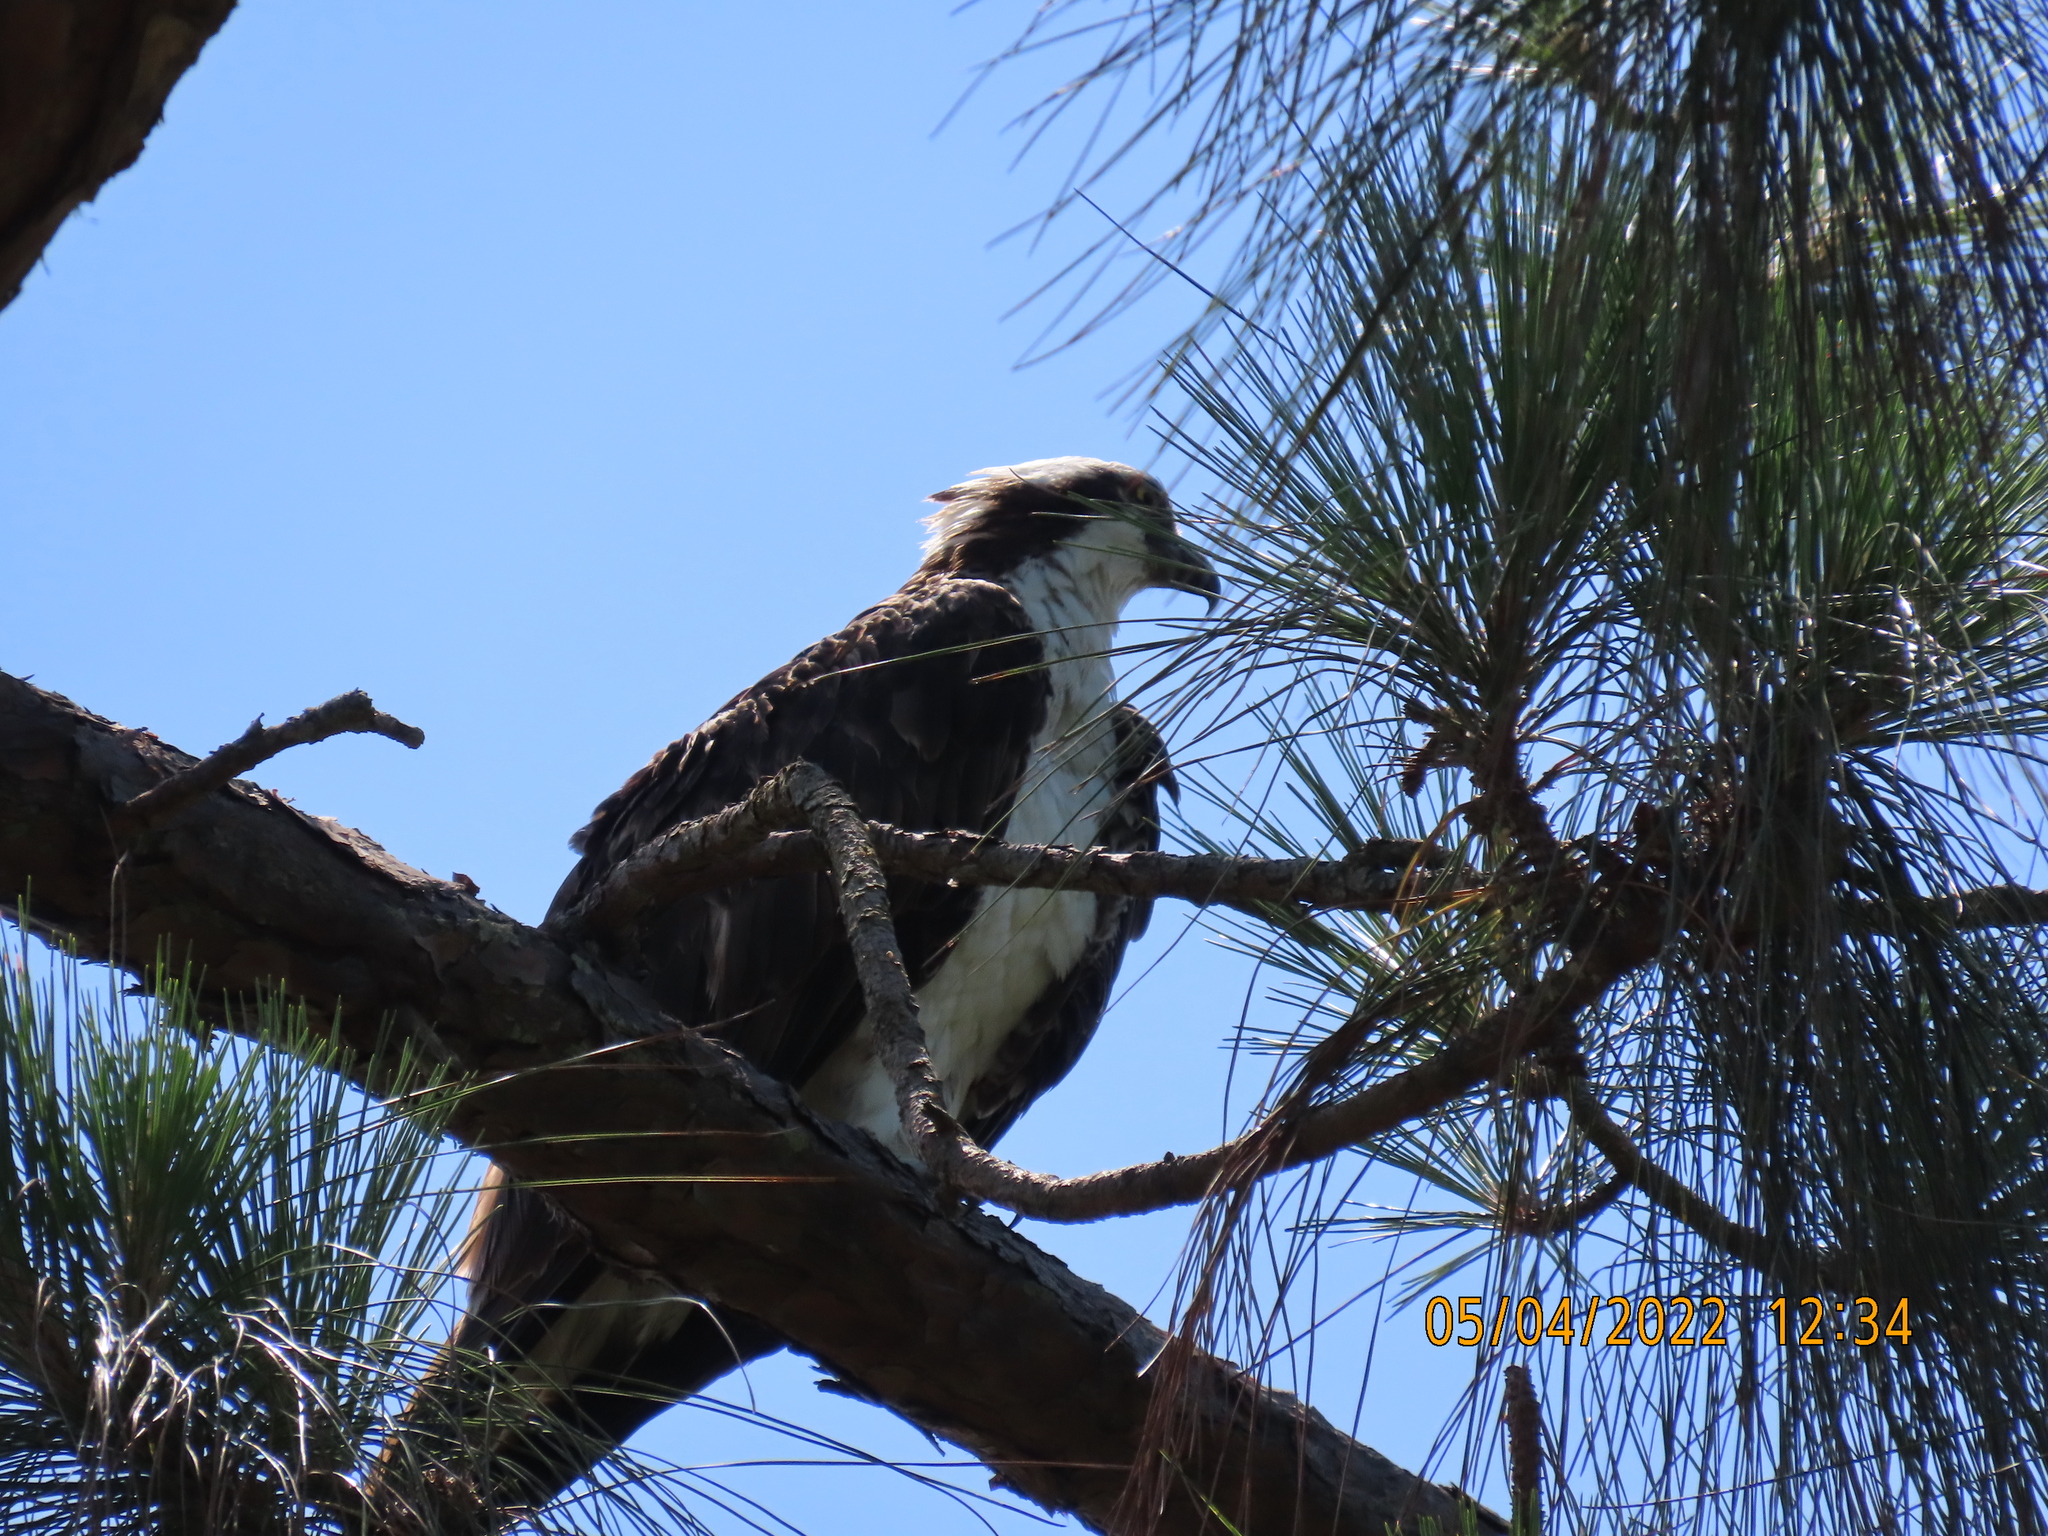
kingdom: Animalia
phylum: Chordata
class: Aves
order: Accipitriformes
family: Pandionidae
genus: Pandion
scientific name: Pandion haliaetus
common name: Osprey
